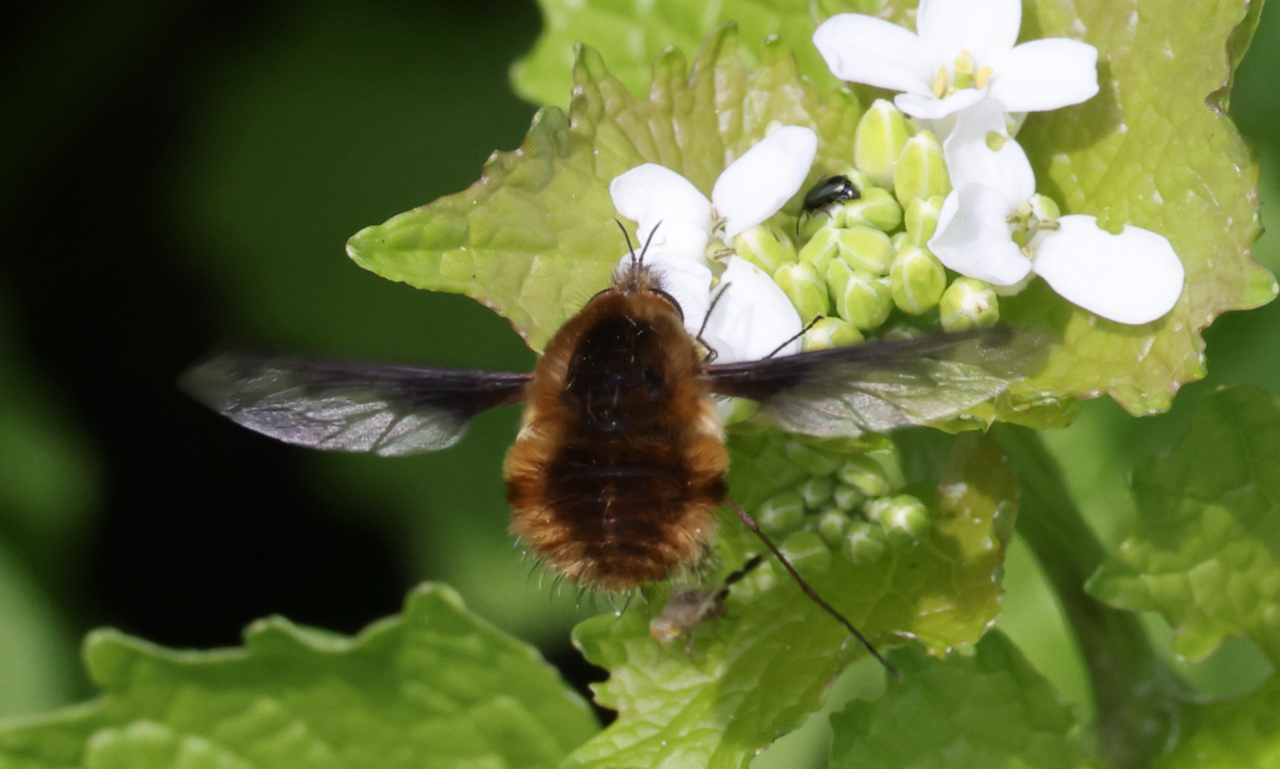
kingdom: Animalia
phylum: Arthropoda
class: Insecta
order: Diptera
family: Bombyliidae
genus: Bombylius
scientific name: Bombylius major
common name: Bee fly
